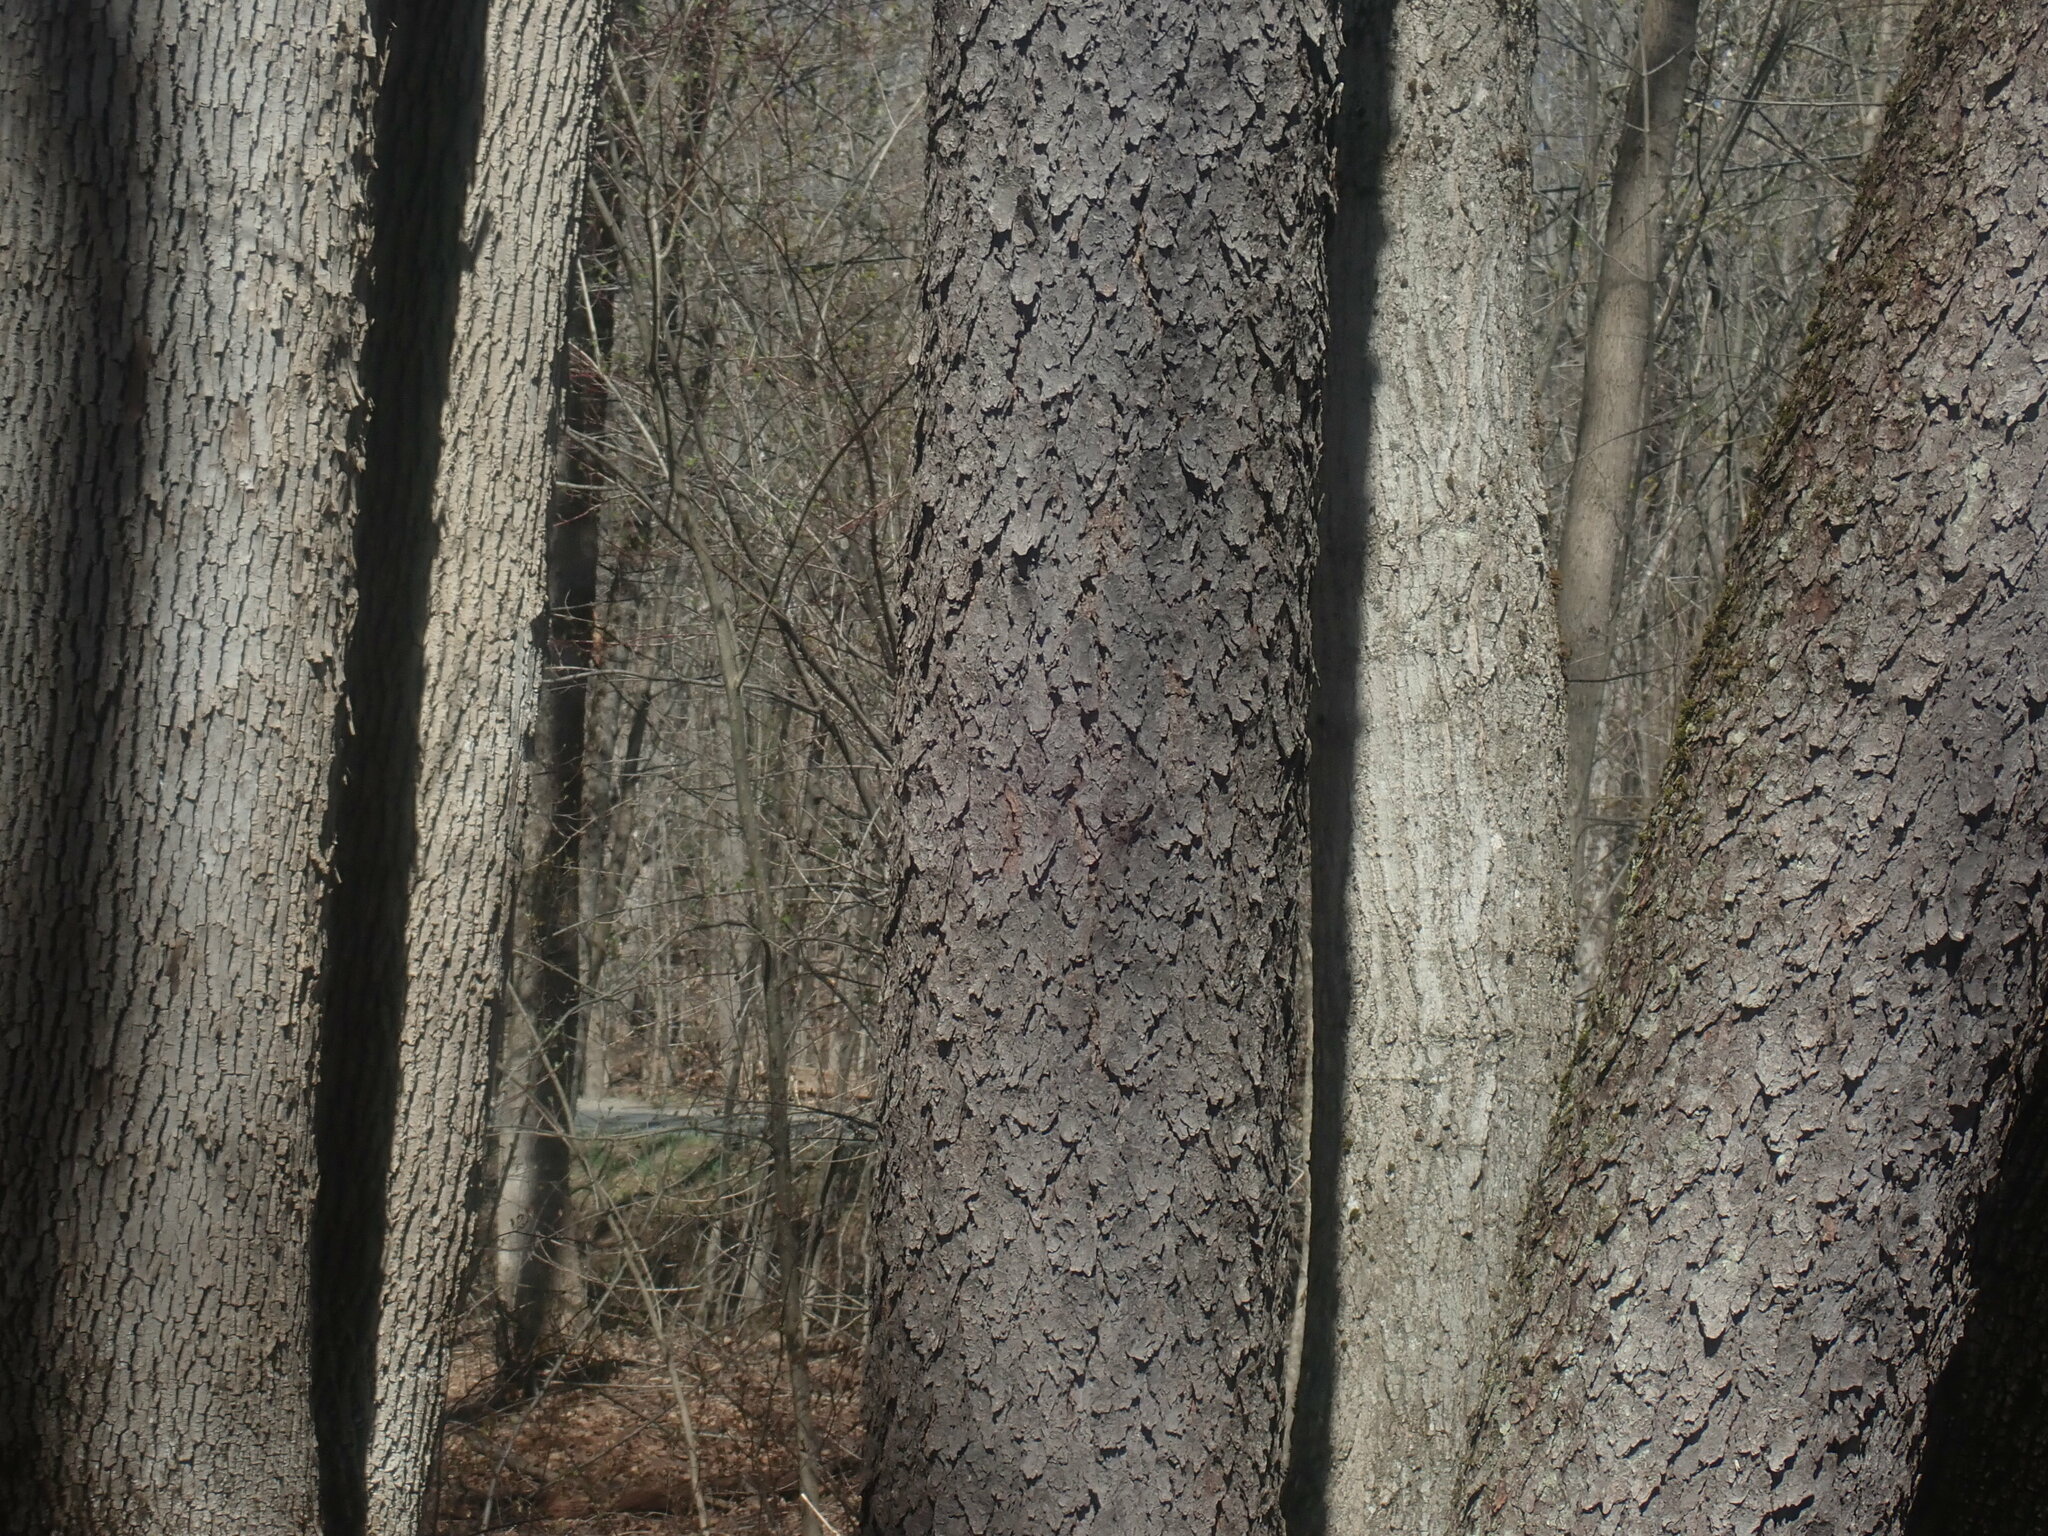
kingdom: Plantae
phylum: Tracheophyta
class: Magnoliopsida
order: Rosales
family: Rosaceae
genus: Prunus
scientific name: Prunus serotina
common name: Black cherry
